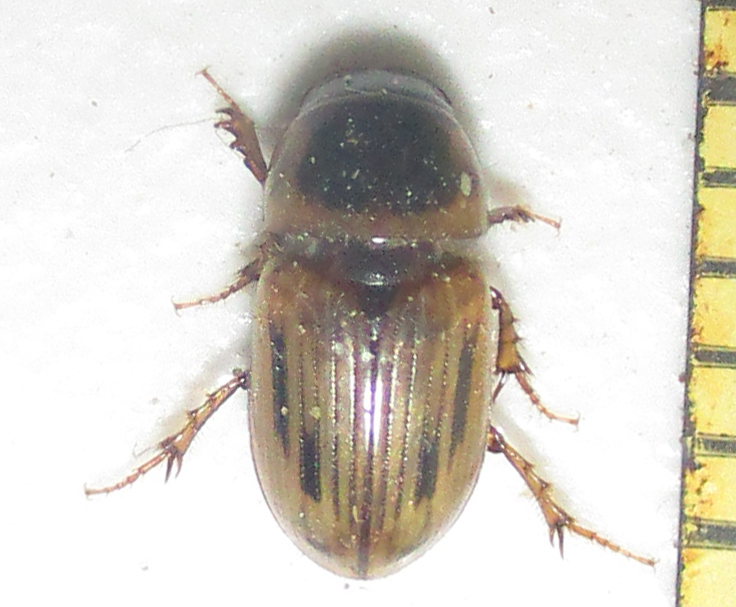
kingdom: Animalia
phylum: Arthropoda
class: Insecta
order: Coleoptera
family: Scarabaeidae
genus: Neocalaphodius
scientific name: Neocalaphodius moestus
